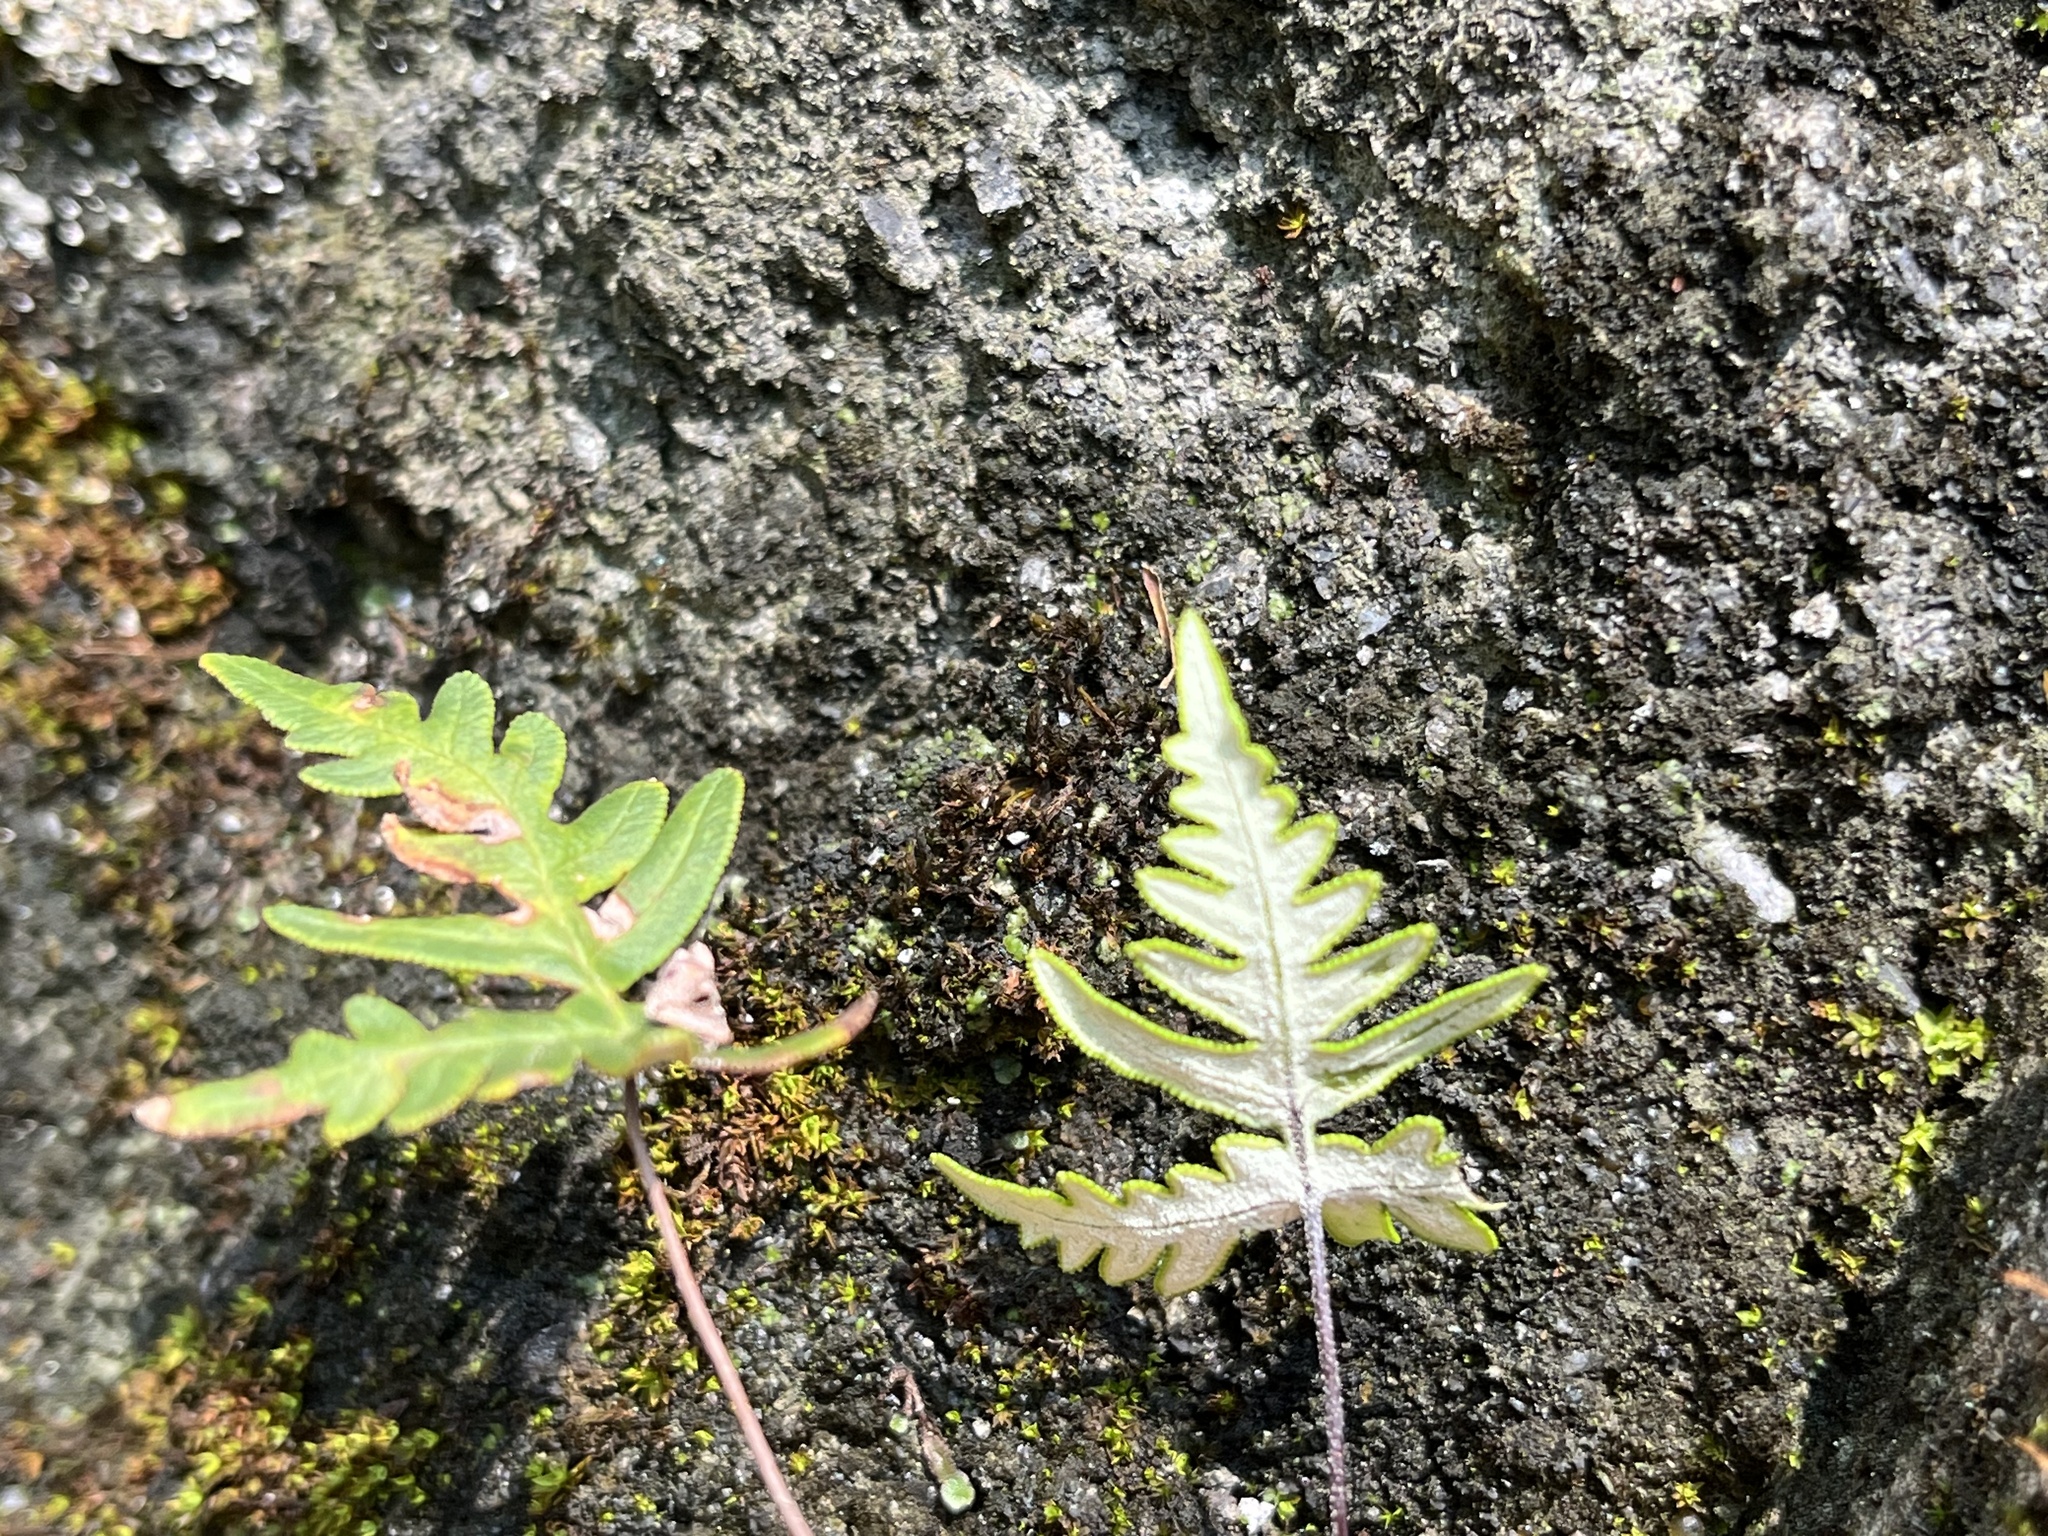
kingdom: Plantae
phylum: Tracheophyta
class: Polypodiopsida
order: Polypodiales
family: Pteridaceae
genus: Aleuritopteris
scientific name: Aleuritopteris argentea
